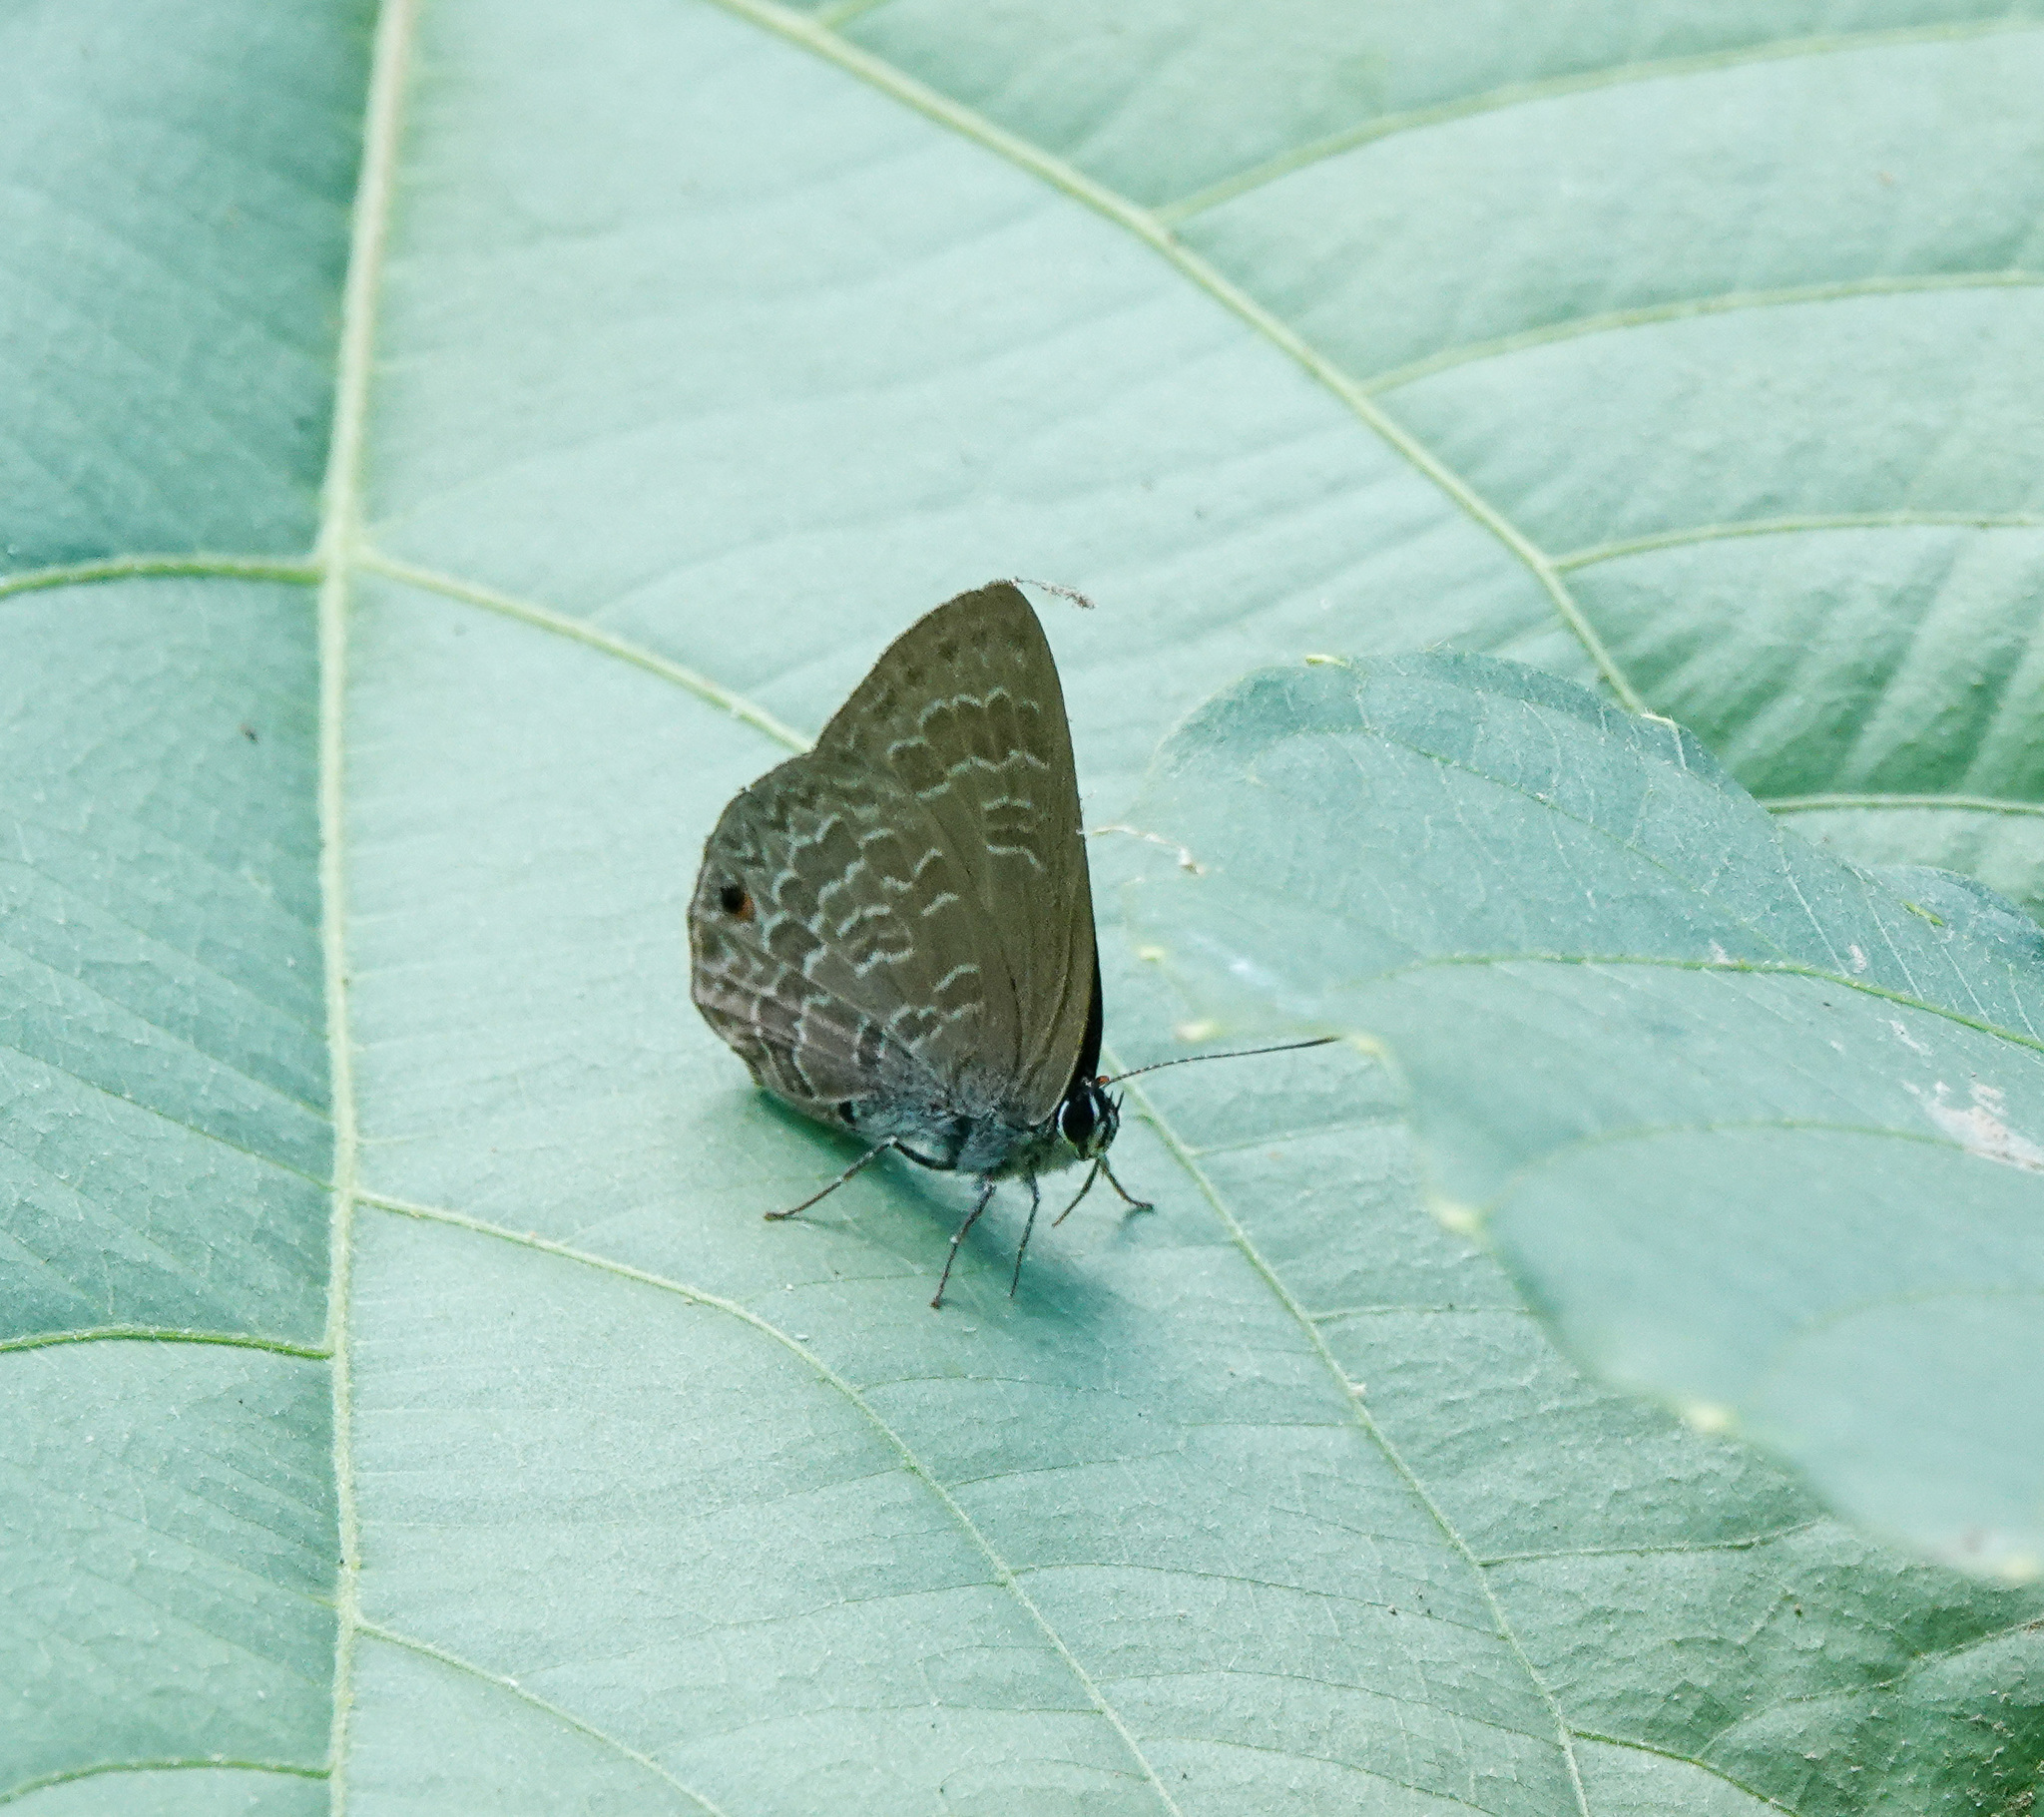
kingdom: Animalia
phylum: Arthropoda
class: Insecta
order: Lepidoptera
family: Lycaenidae
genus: Anthene
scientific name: Anthene emolus
